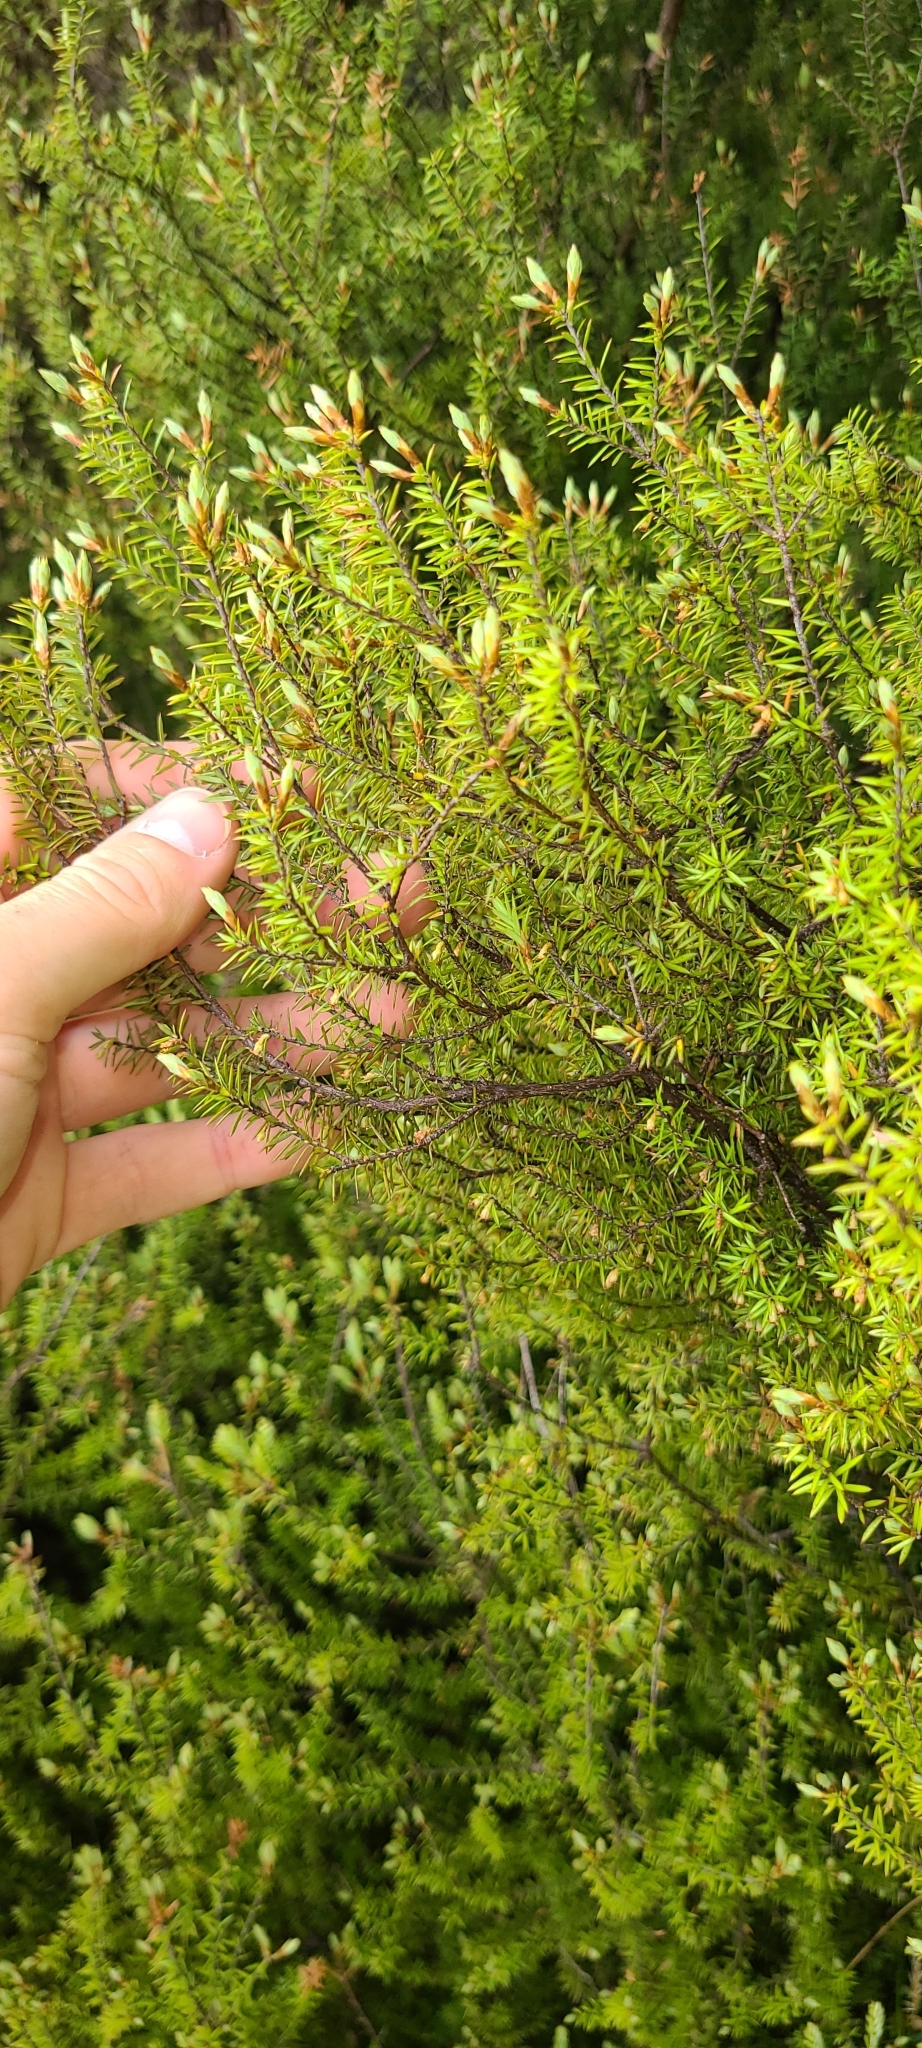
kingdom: Plantae
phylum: Tracheophyta
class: Magnoliopsida
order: Ericales
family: Ericaceae
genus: Leptecophylla
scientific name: Leptecophylla juniperina
